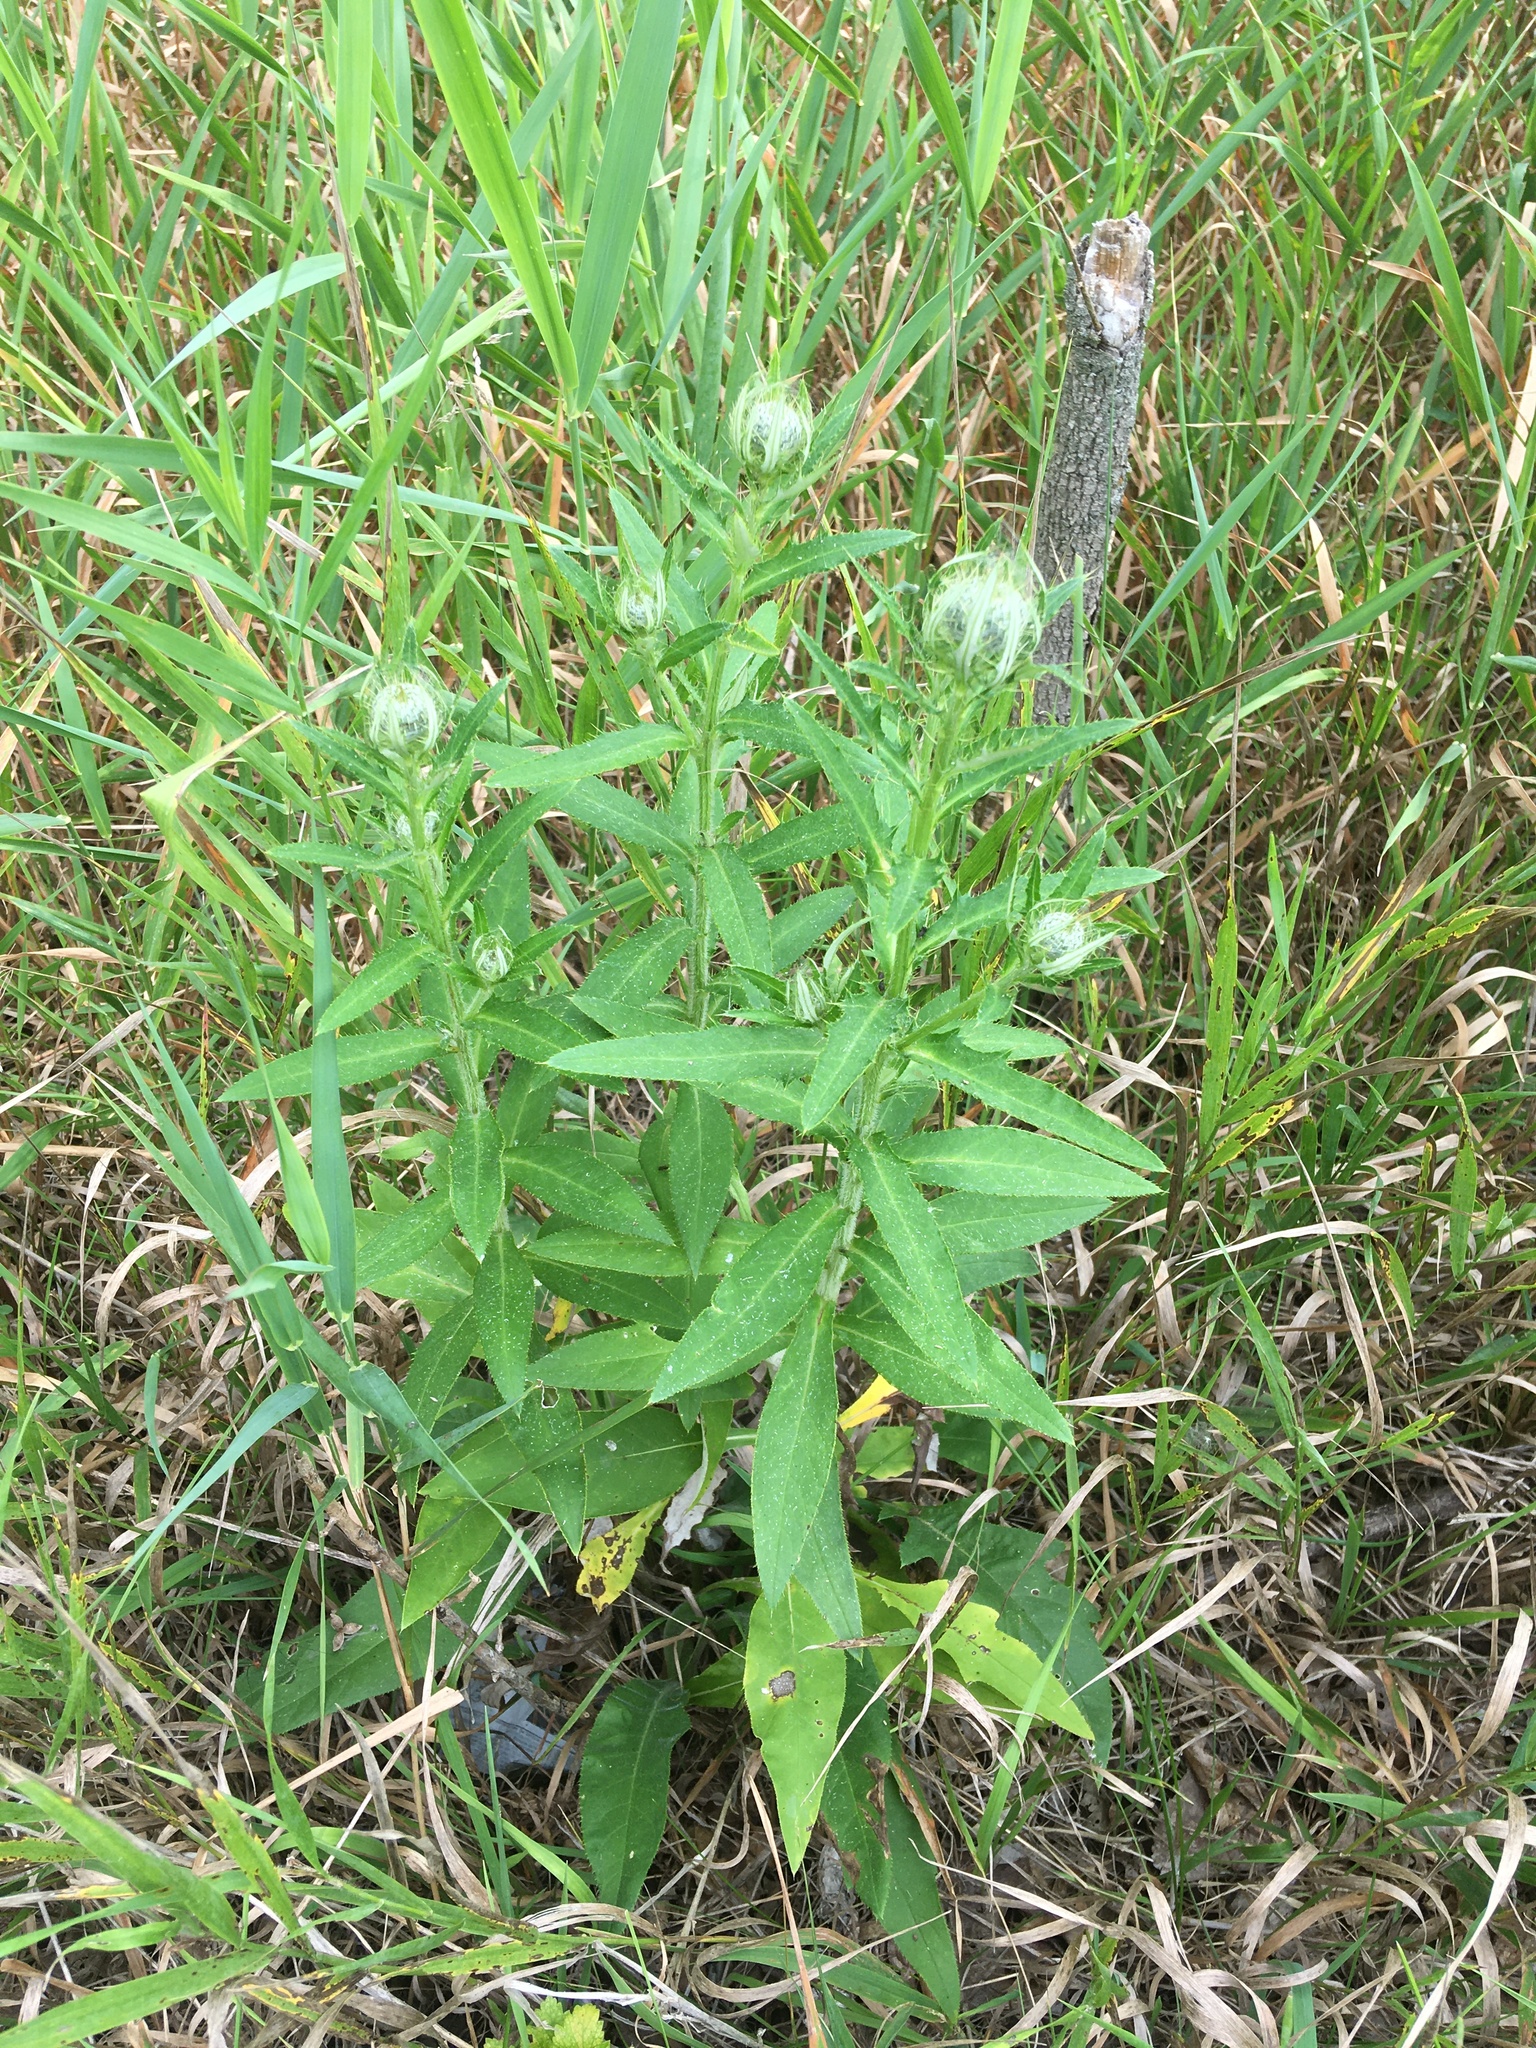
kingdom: Plantae
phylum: Tracheophyta
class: Magnoliopsida
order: Asterales
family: Asteraceae
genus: Cirsium
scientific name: Cirsium altissimum
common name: Roadside thistle
